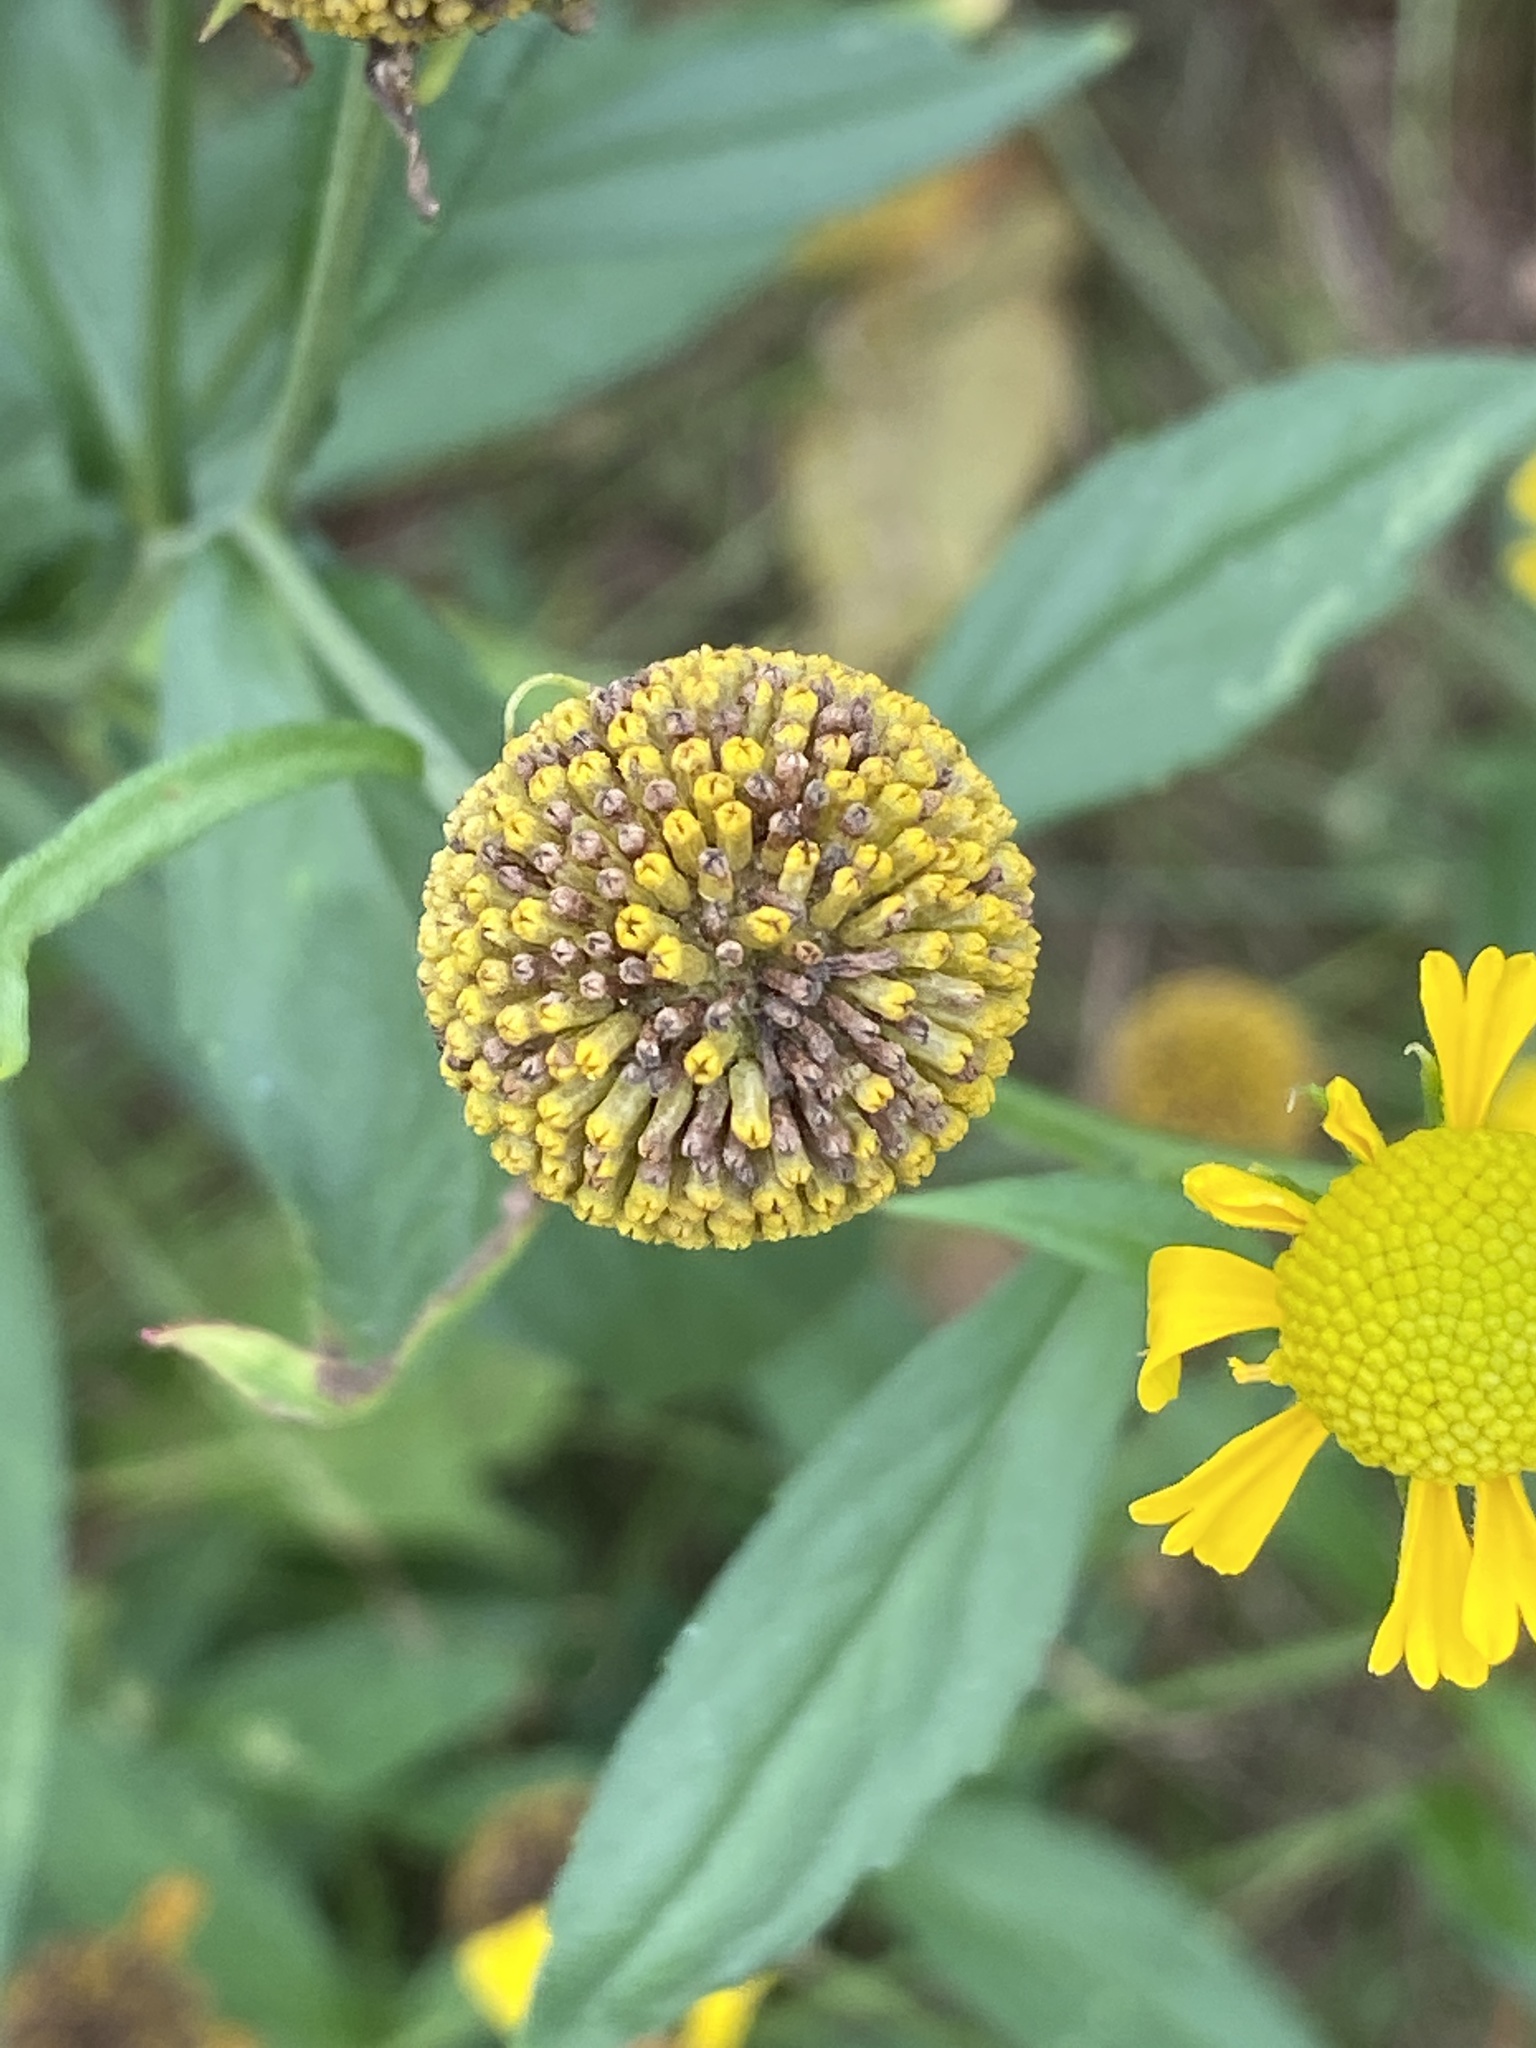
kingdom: Plantae
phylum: Tracheophyta
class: Magnoliopsida
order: Asterales
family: Asteraceae
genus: Helenium
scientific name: Helenium autumnale
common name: Sneezeweed
